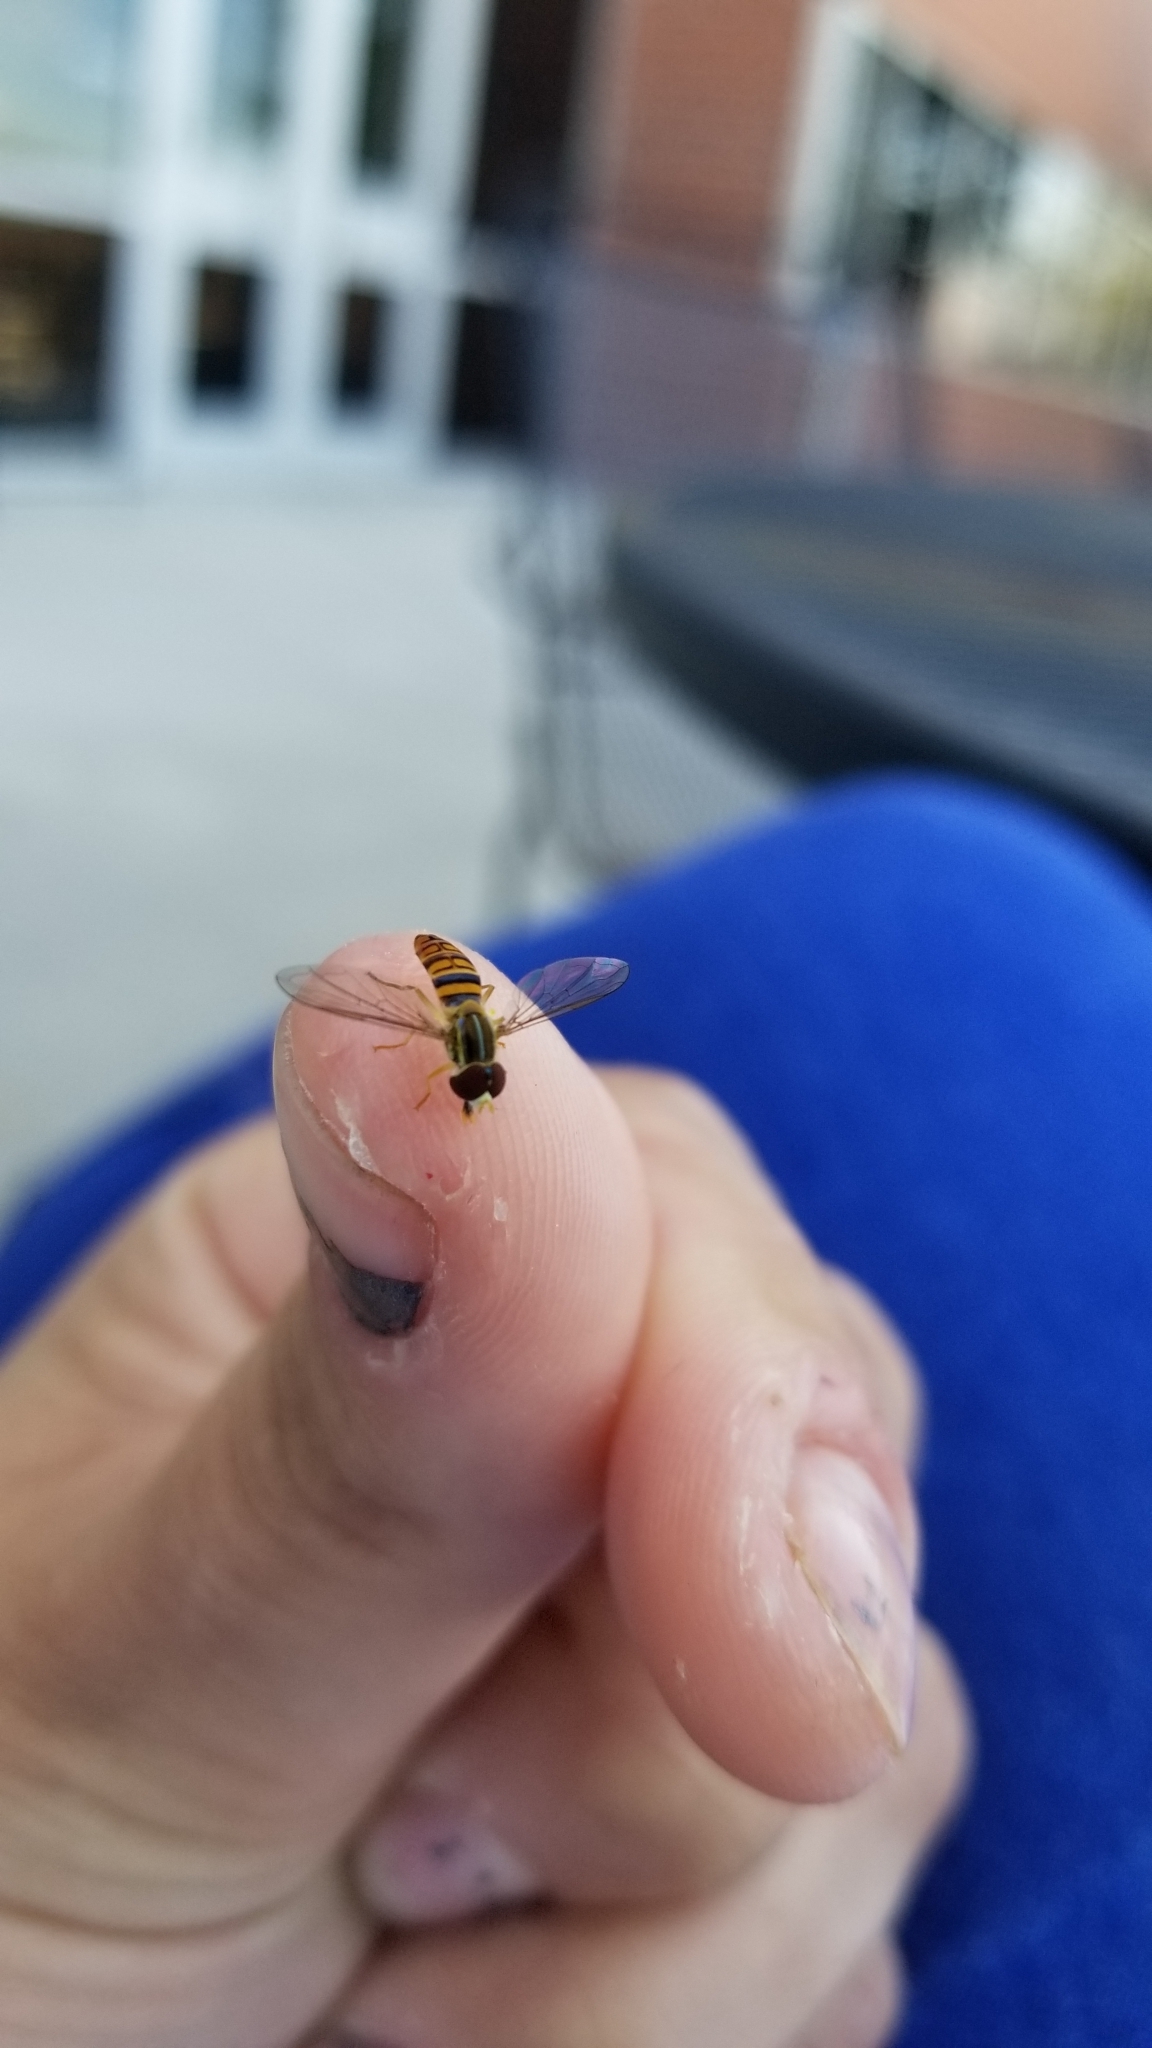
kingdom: Animalia
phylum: Arthropoda
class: Insecta
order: Diptera
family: Syrphidae
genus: Toxomerus
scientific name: Toxomerus politus
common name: Maize calligrapher
